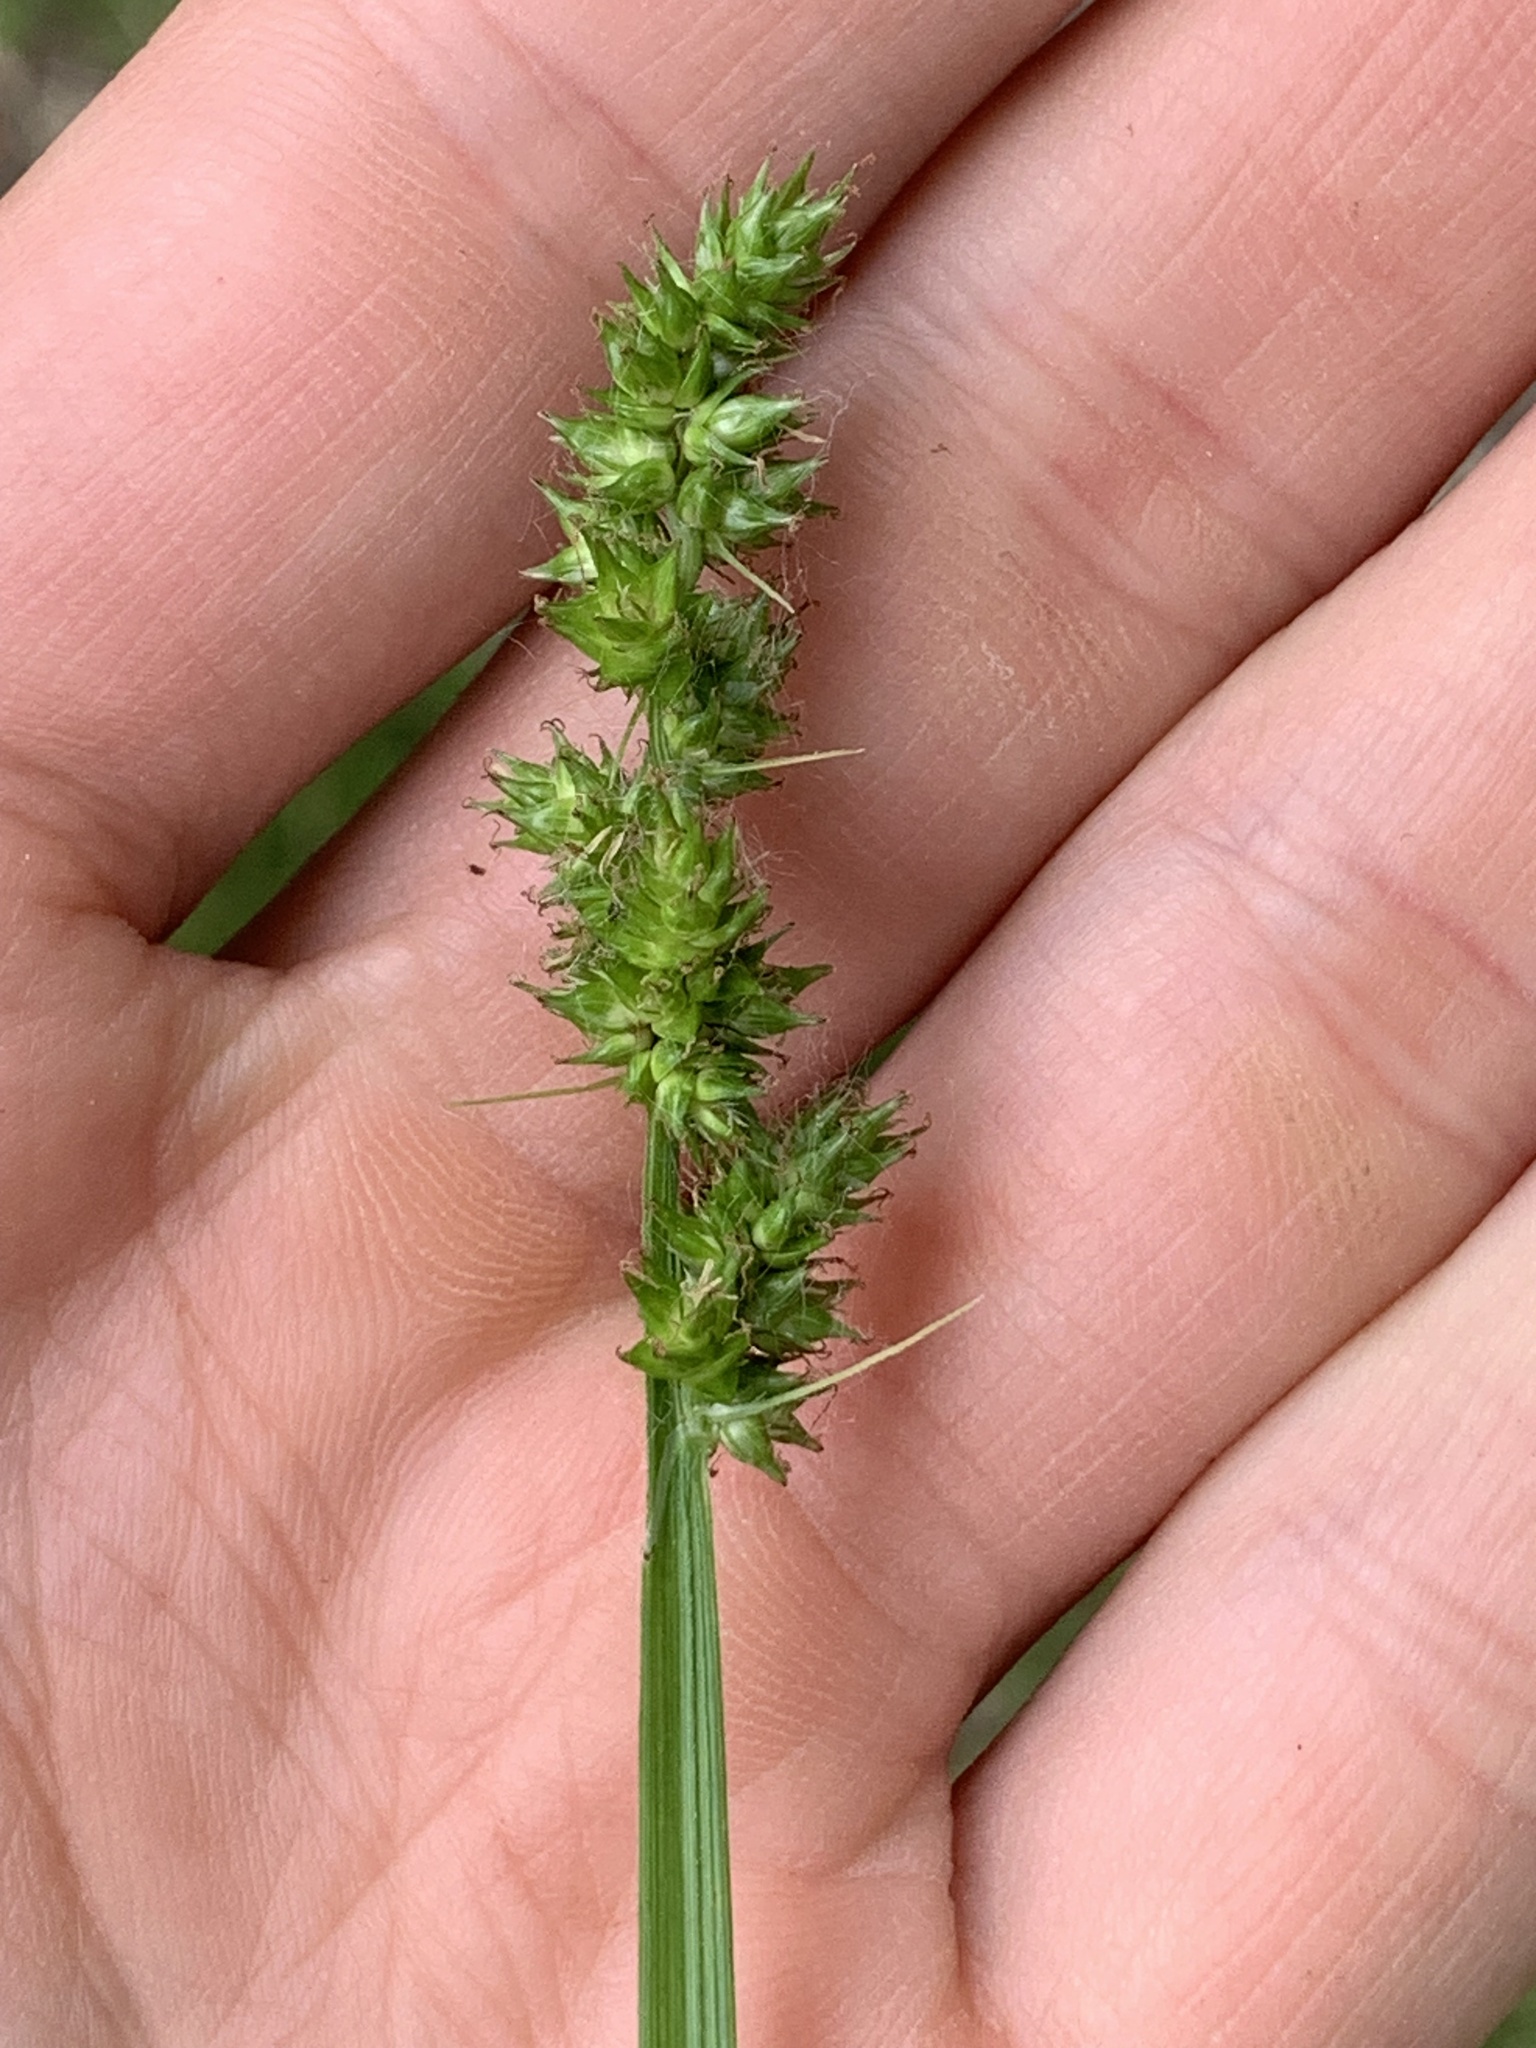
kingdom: Plantae
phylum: Tracheophyta
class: Liliopsida
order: Poales
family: Cyperaceae
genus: Carex
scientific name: Carex conjuncta
